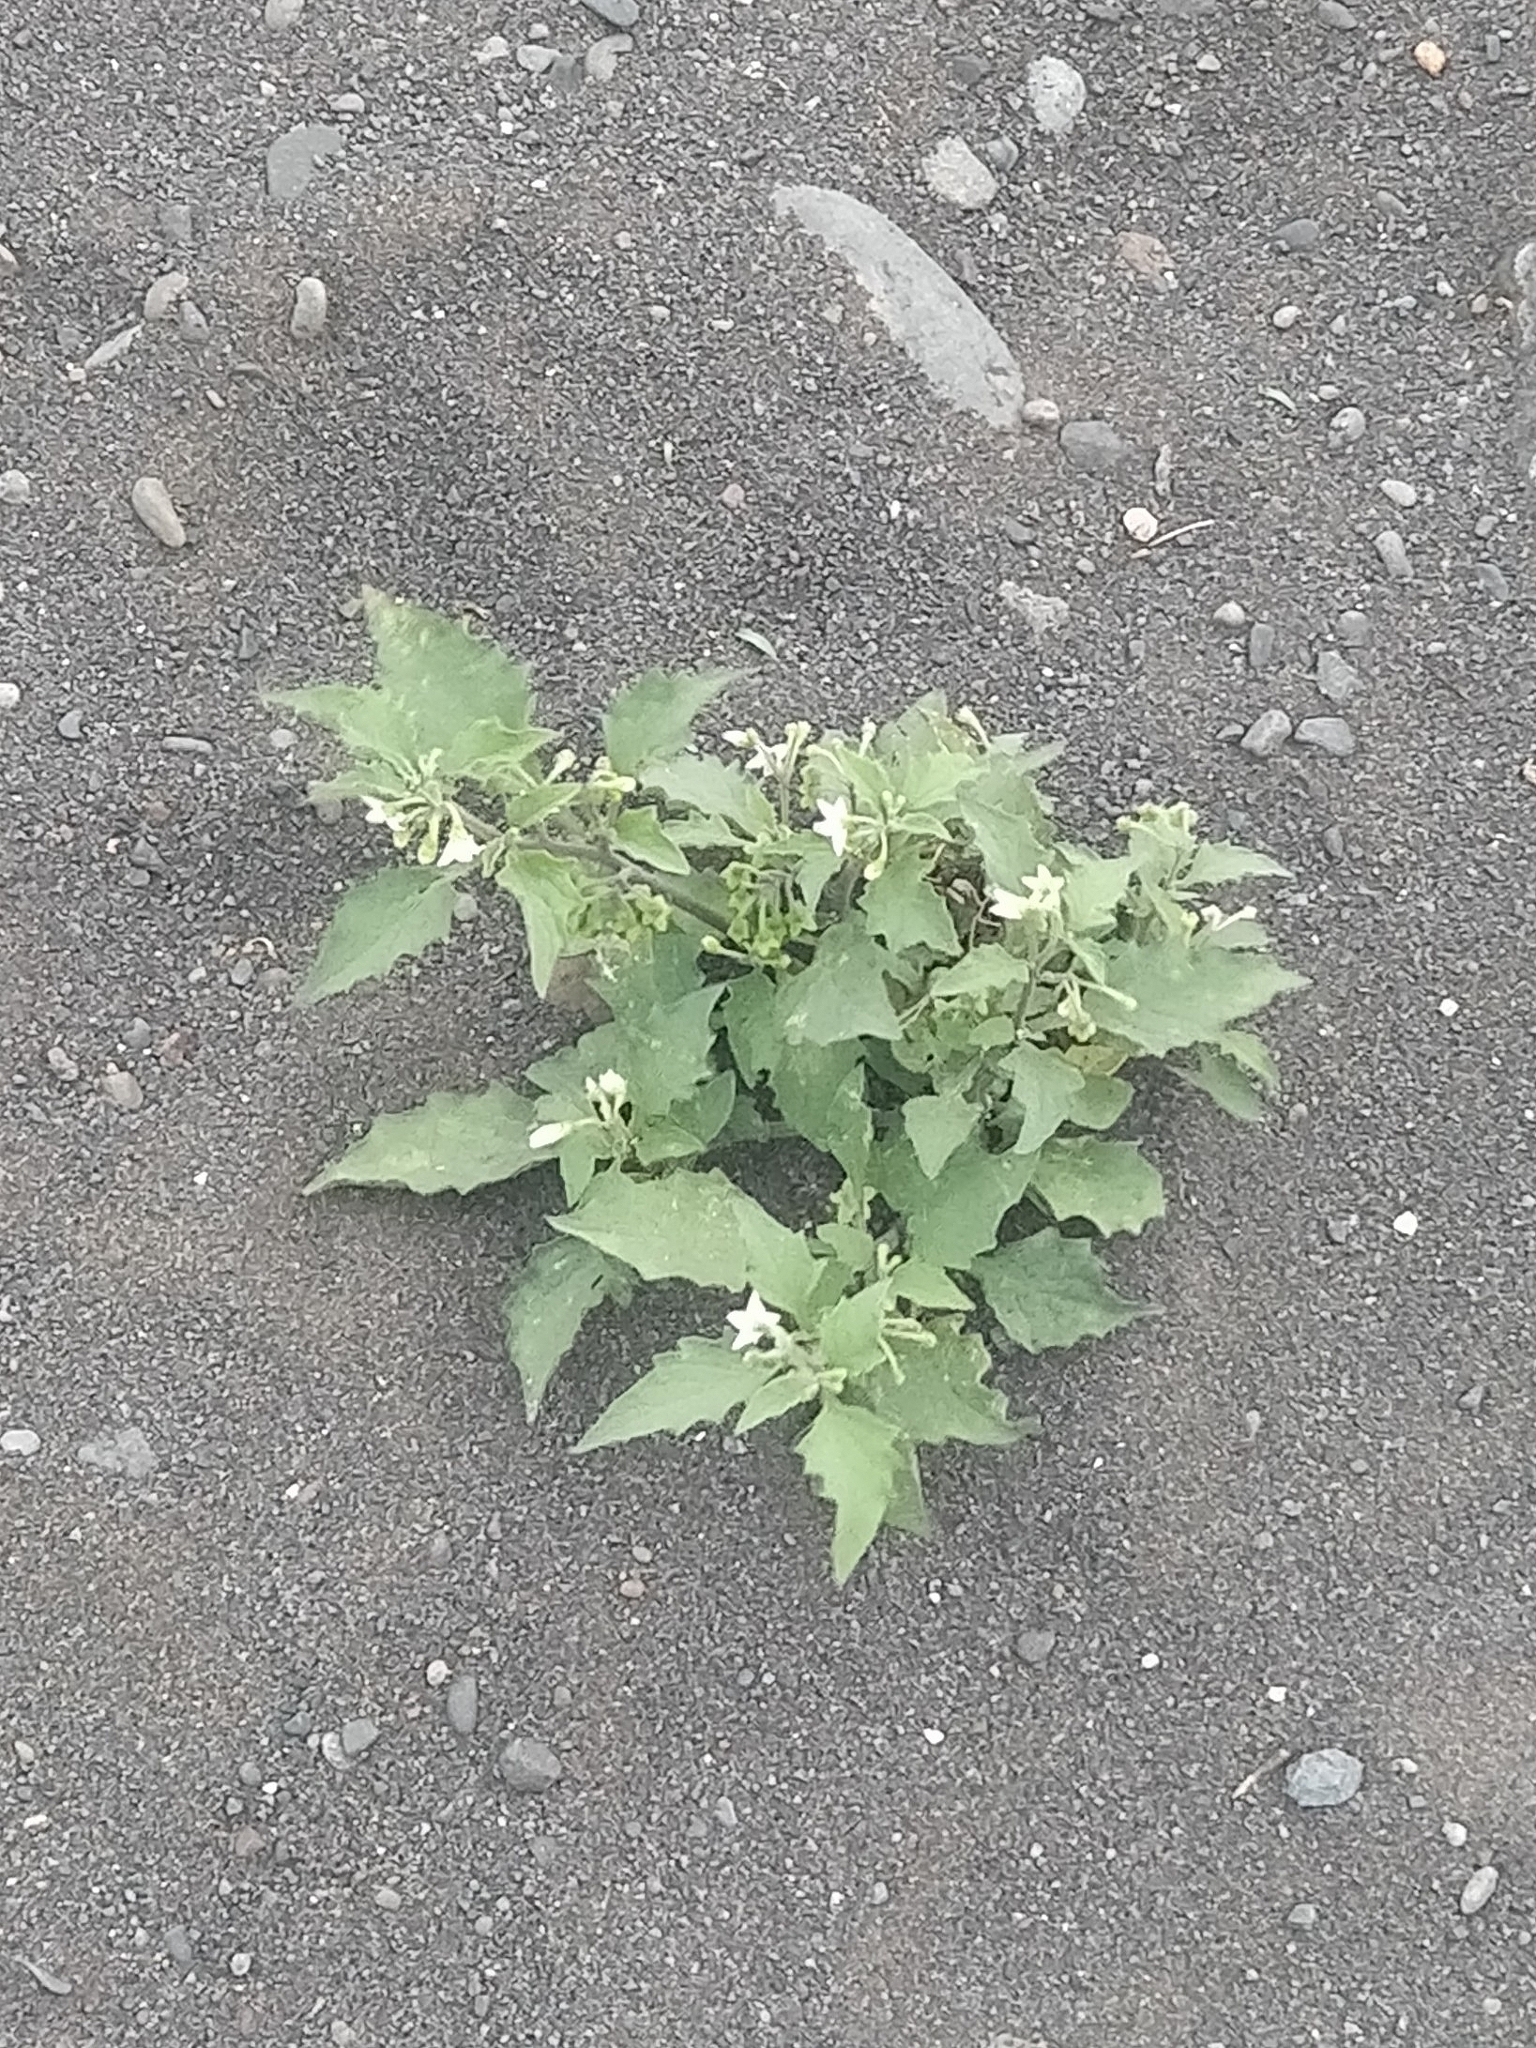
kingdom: Plantae
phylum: Tracheophyta
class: Magnoliopsida
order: Solanales
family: Solanaceae
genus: Solanum
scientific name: Solanum nigrum
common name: Black nightshade
